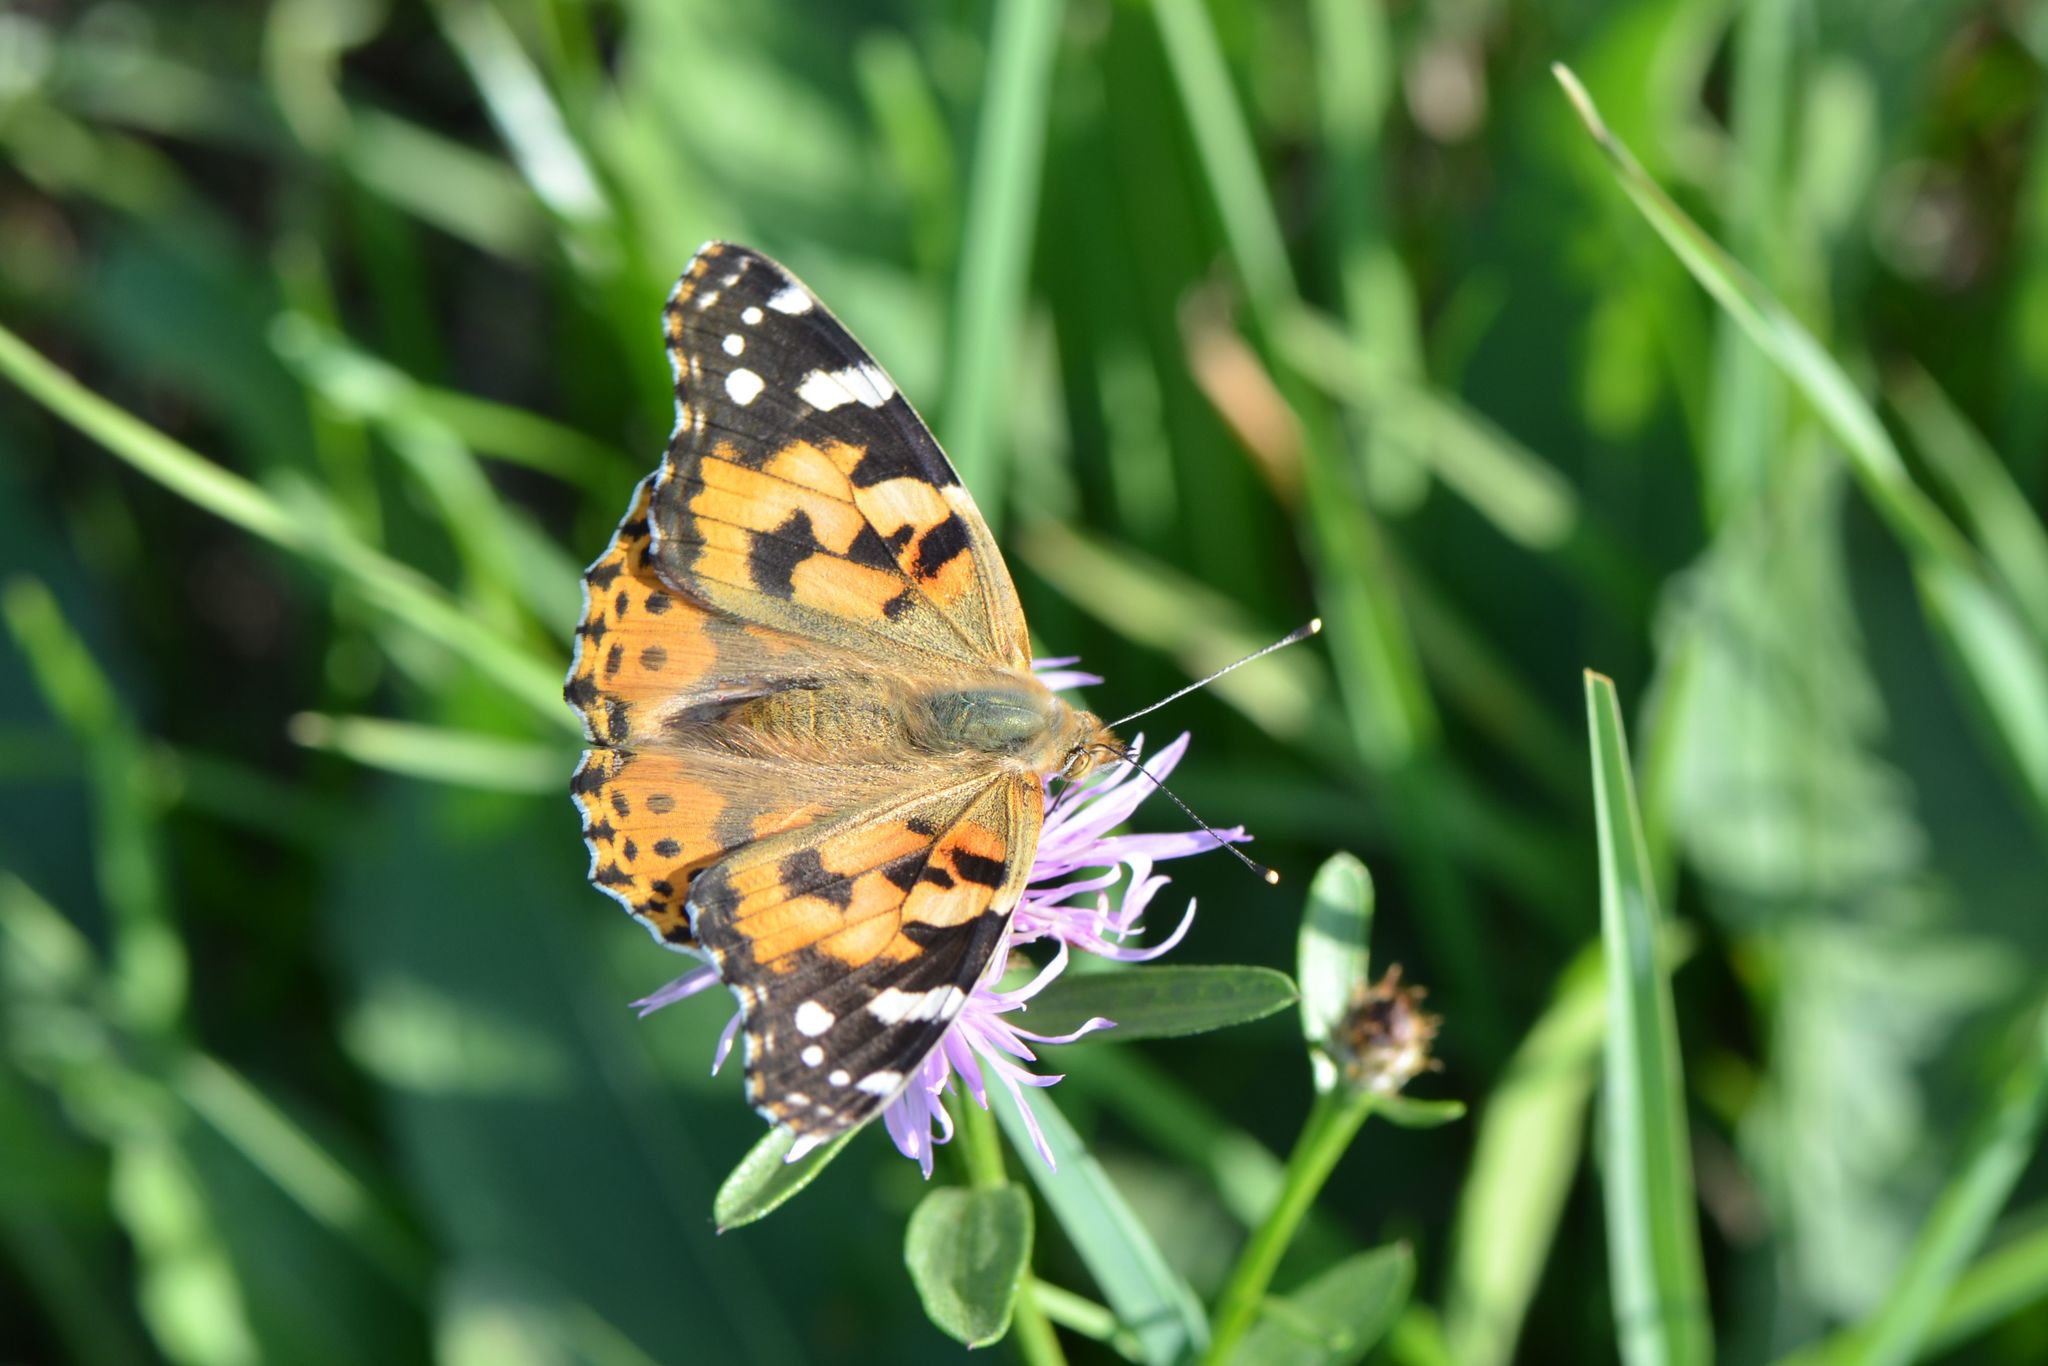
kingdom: Animalia
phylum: Arthropoda
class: Insecta
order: Lepidoptera
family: Nymphalidae
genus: Vanessa
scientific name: Vanessa cardui
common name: Painted lady
